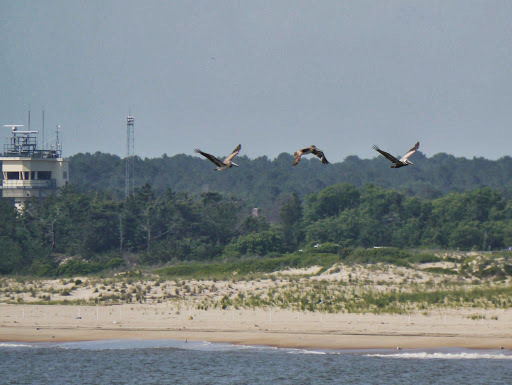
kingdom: Animalia
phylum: Chordata
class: Aves
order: Pelecaniformes
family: Pelecanidae
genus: Pelecanus
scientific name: Pelecanus occidentalis
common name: Brown pelican
